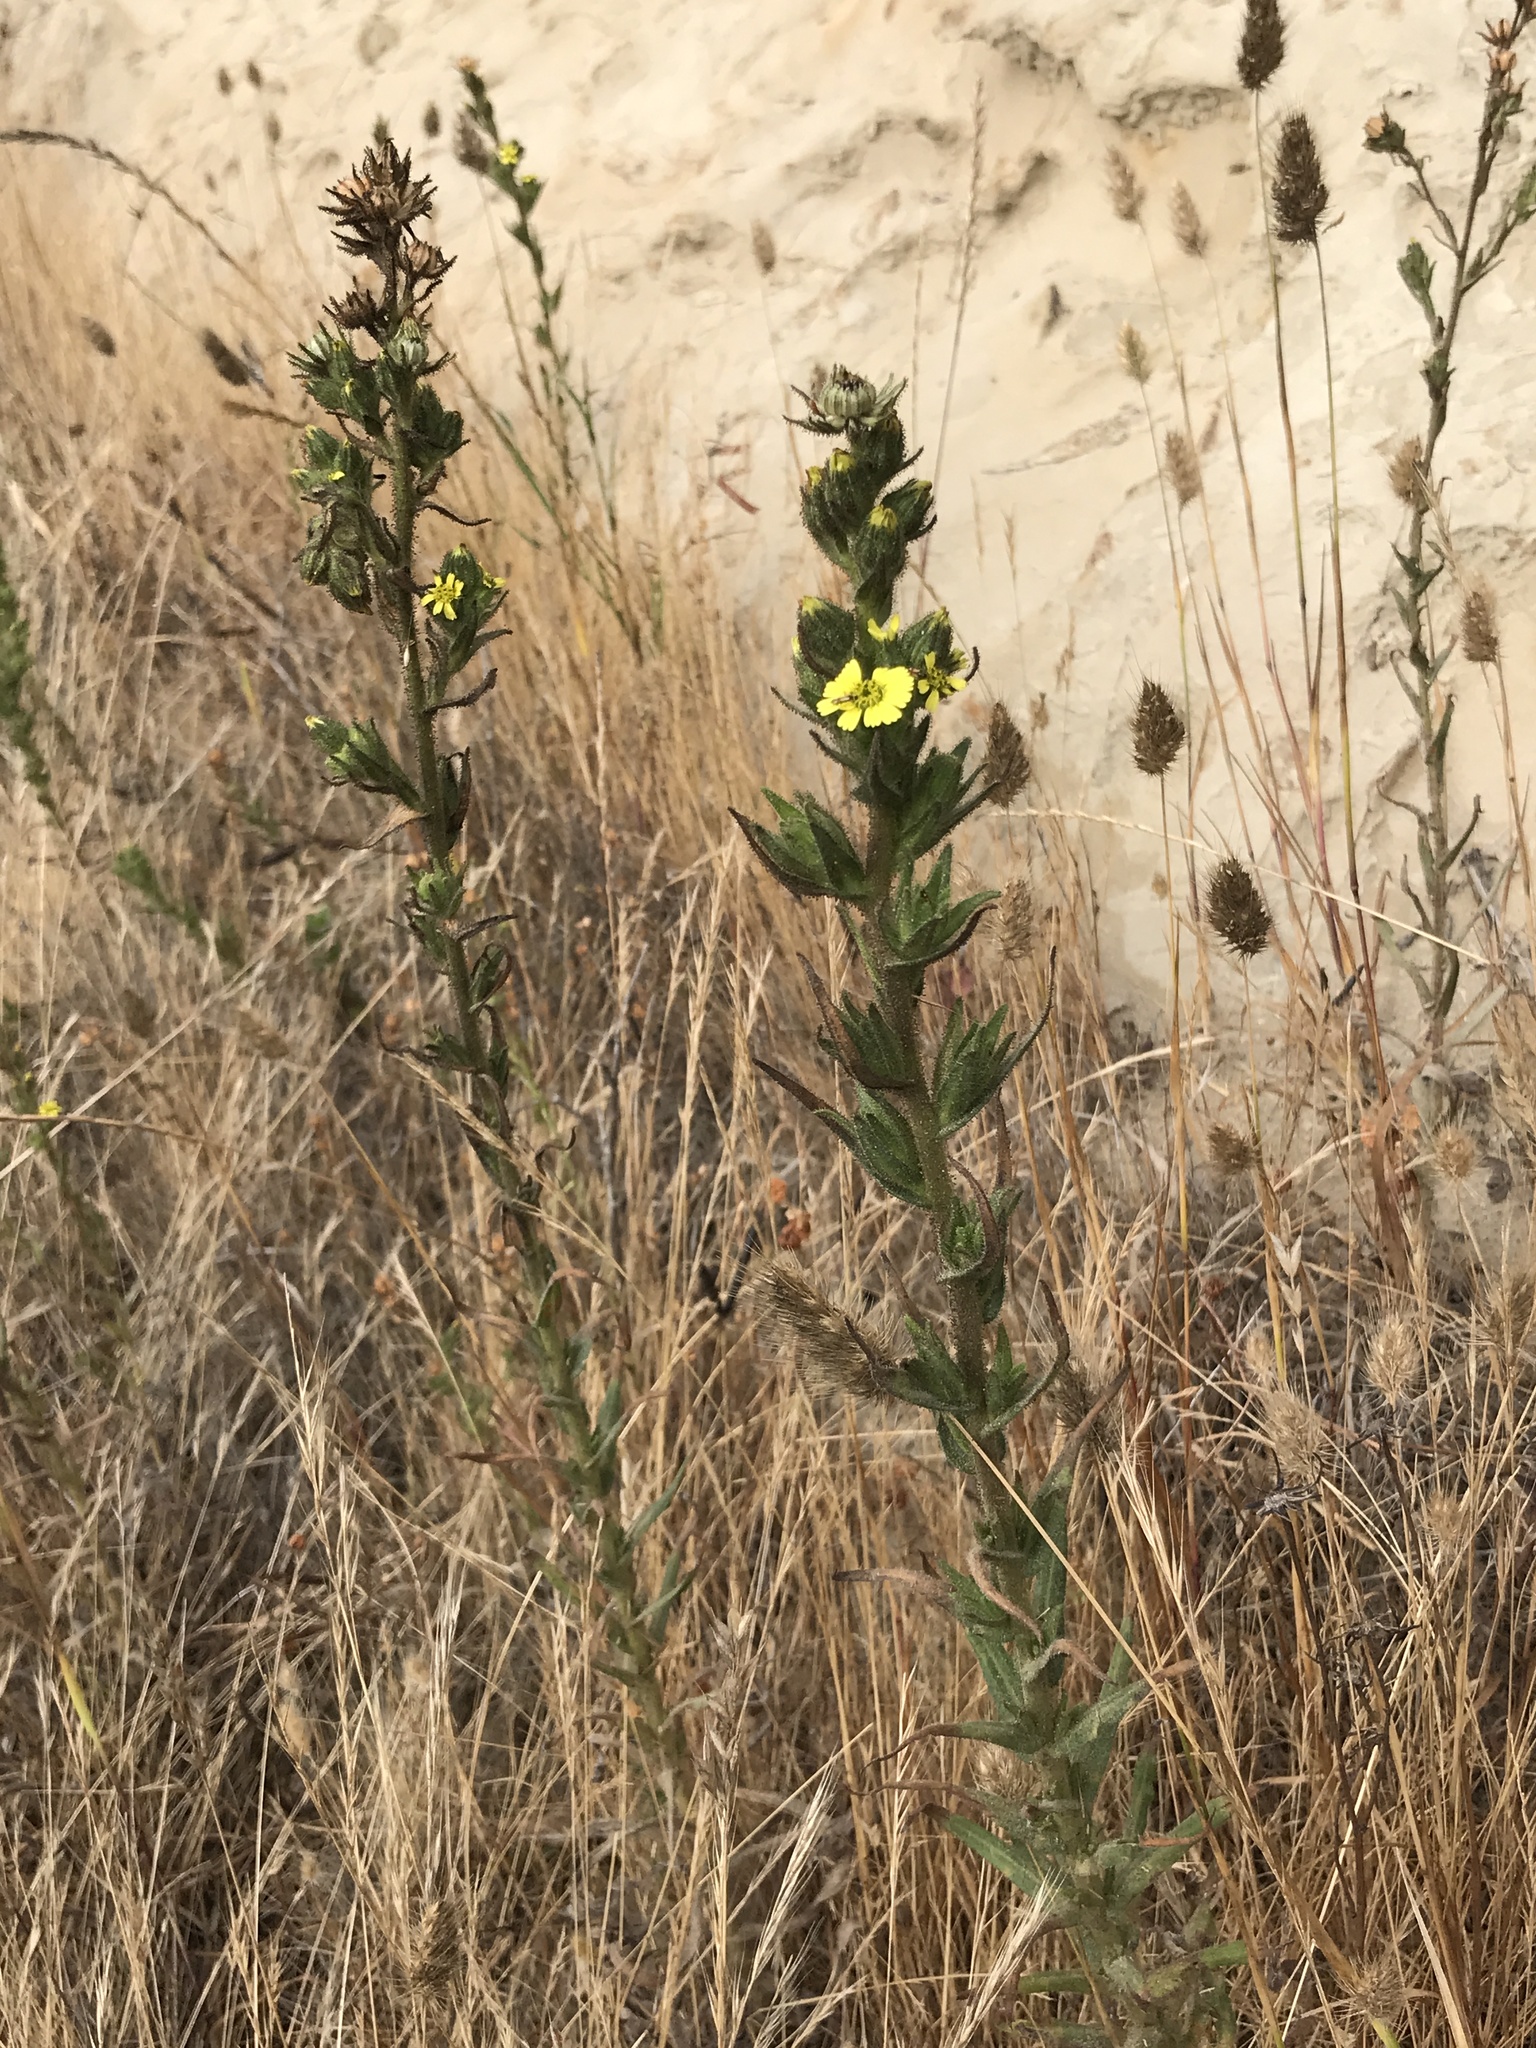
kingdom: Plantae
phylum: Tracheophyta
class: Magnoliopsida
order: Asterales
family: Asteraceae
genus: Madia
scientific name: Madia sativa
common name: Coast tarweed
